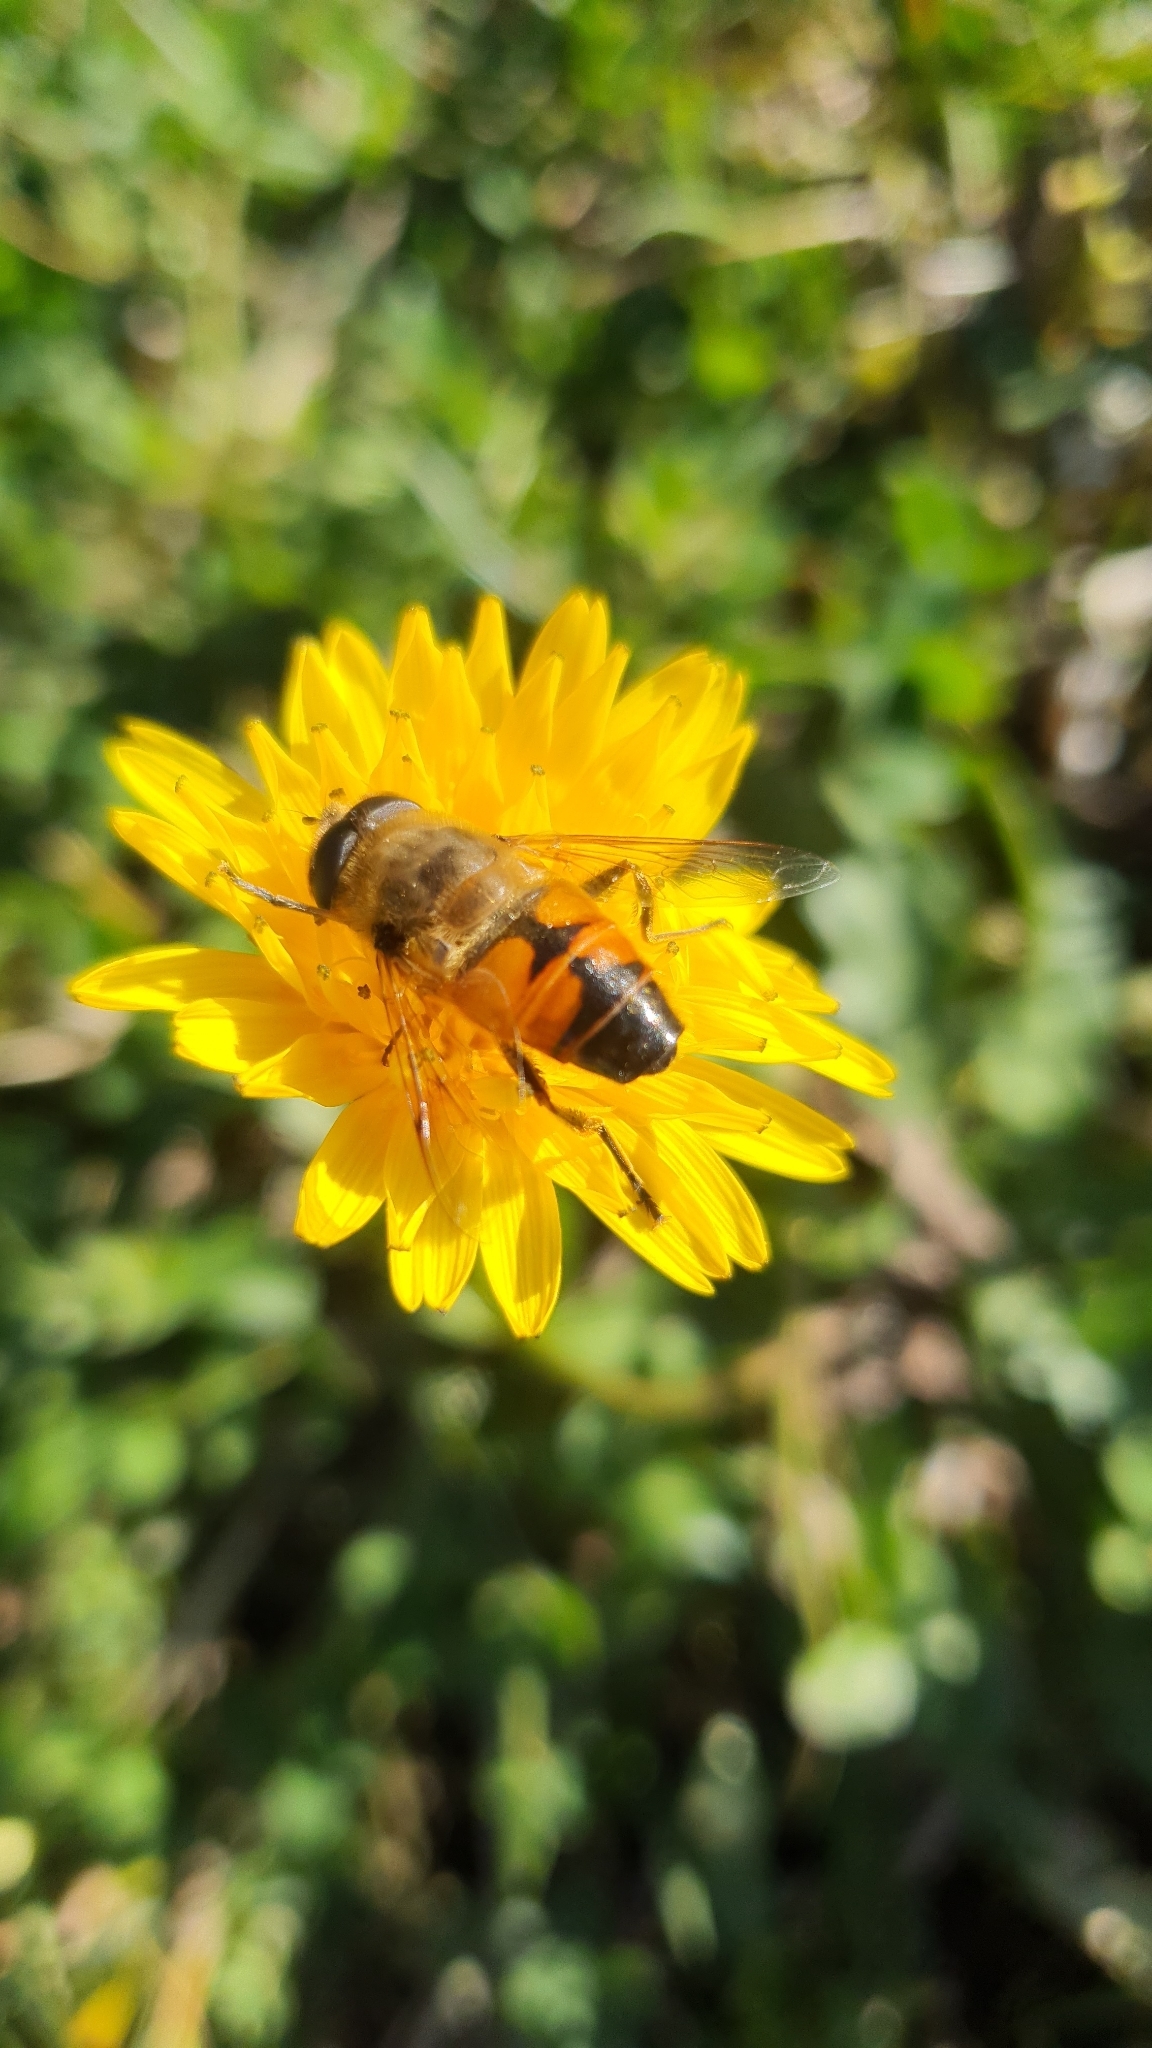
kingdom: Animalia
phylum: Arthropoda
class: Insecta
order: Diptera
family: Syrphidae
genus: Eristalis
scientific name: Eristalis tenax
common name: Drone fly
